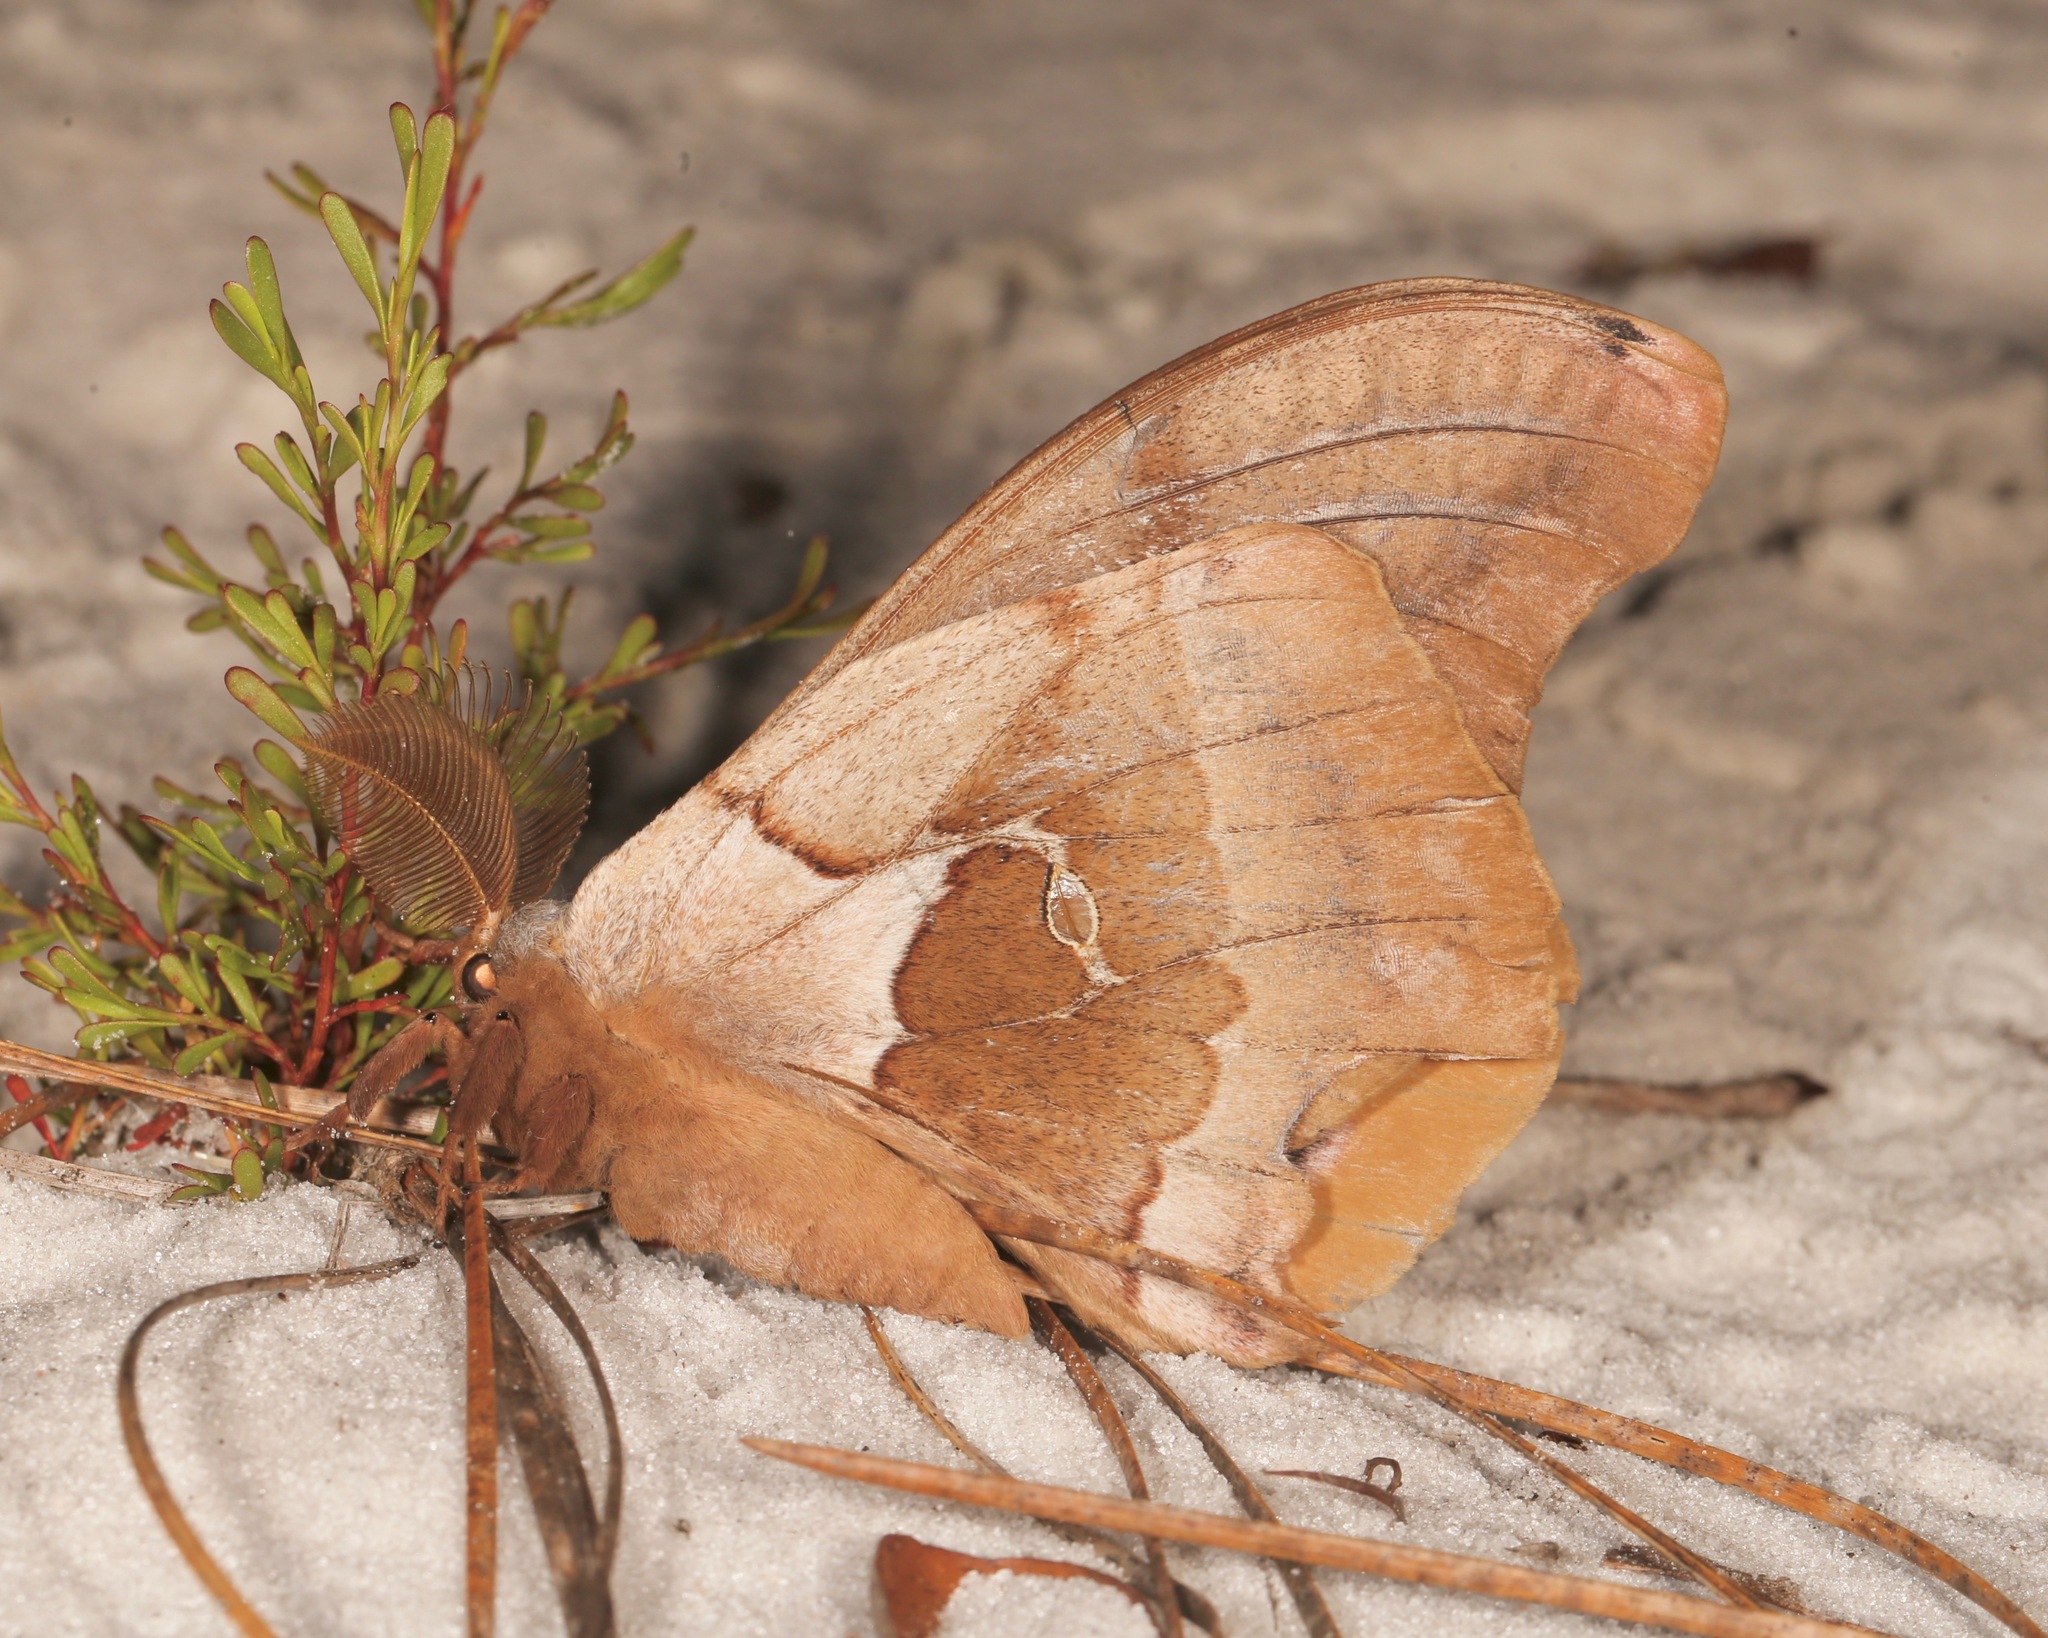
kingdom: Animalia
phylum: Arthropoda
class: Insecta
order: Lepidoptera
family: Saturniidae
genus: Antheraea
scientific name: Antheraea polyphemus
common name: Polyphemus moth
